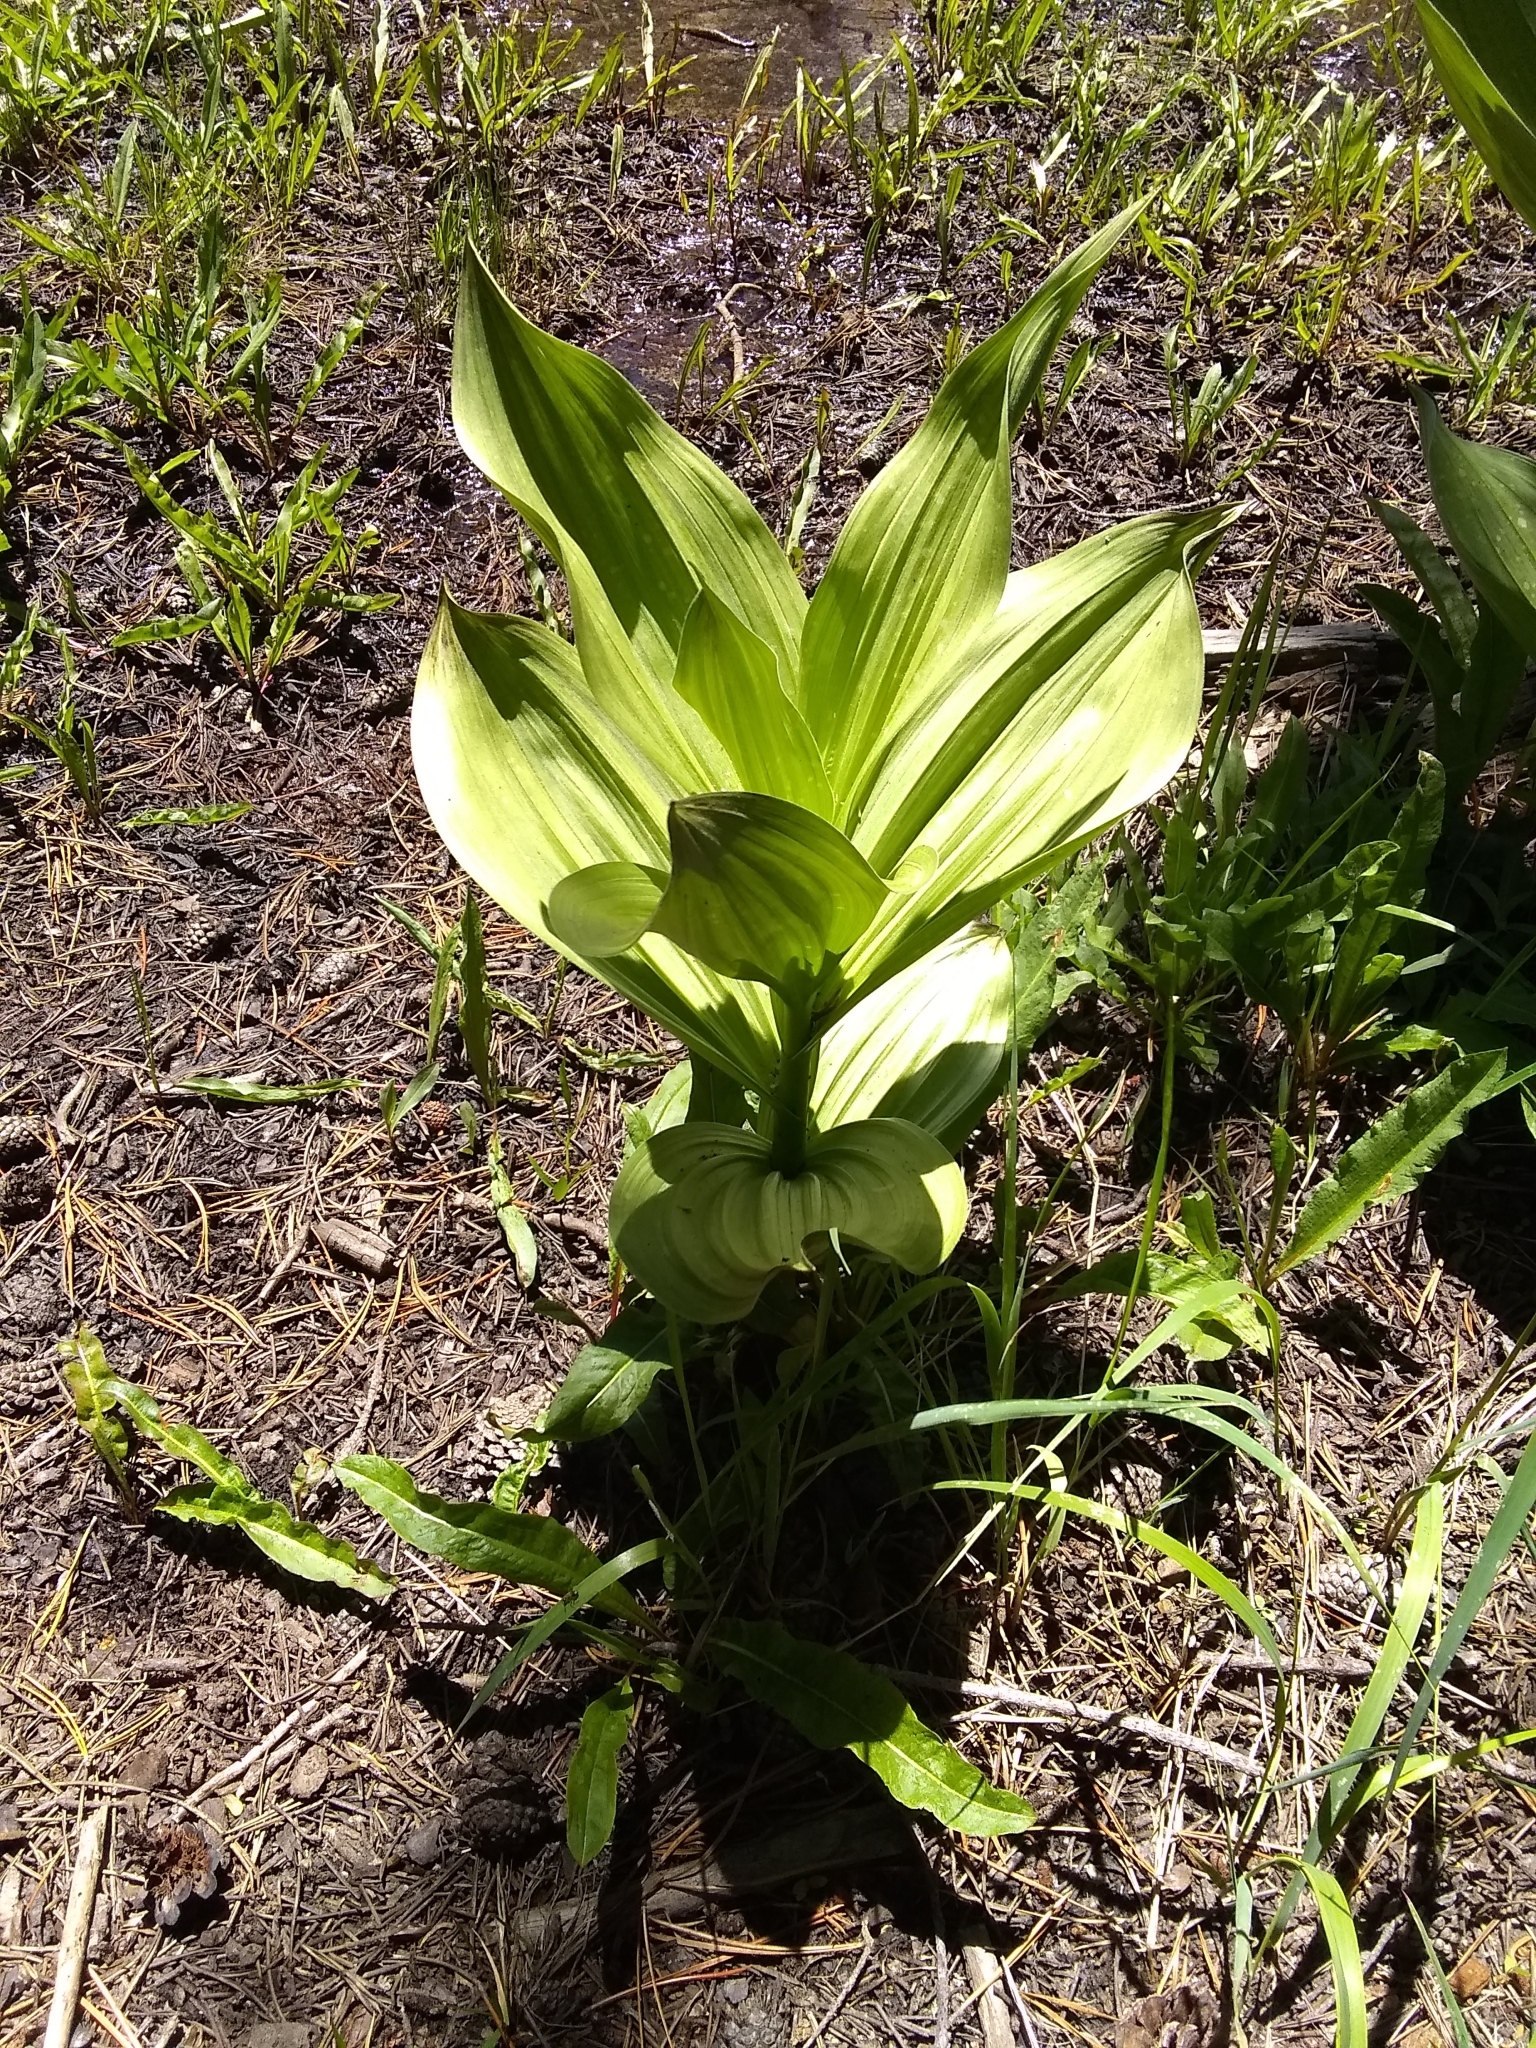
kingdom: Plantae
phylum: Tracheophyta
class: Liliopsida
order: Liliales
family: Melanthiaceae
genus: Veratrum
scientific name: Veratrum californicum
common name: California veratrum
